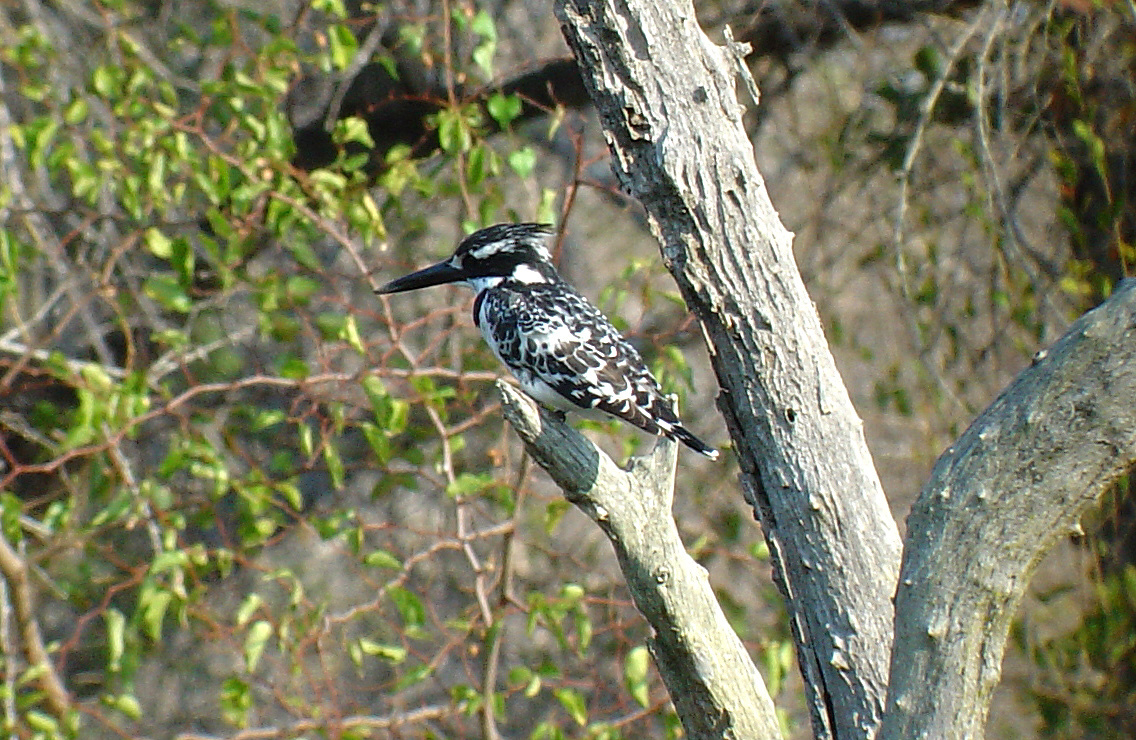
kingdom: Animalia
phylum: Chordata
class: Aves
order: Coraciiformes
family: Alcedinidae
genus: Ceryle
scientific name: Ceryle rudis
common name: Pied kingfisher
